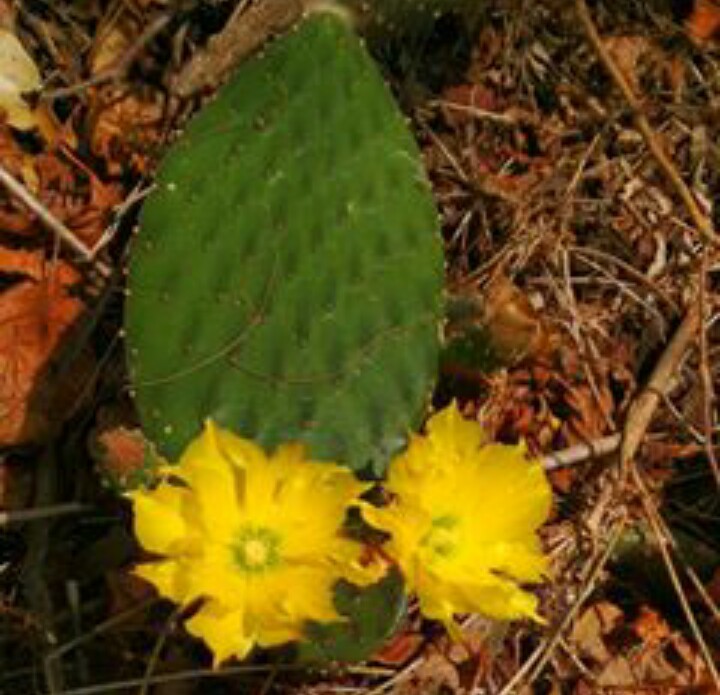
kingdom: Plantae
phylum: Tracheophyta
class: Magnoliopsida
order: Caryophyllales
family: Cactaceae
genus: Opuntia
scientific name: Opuntia decumbens
